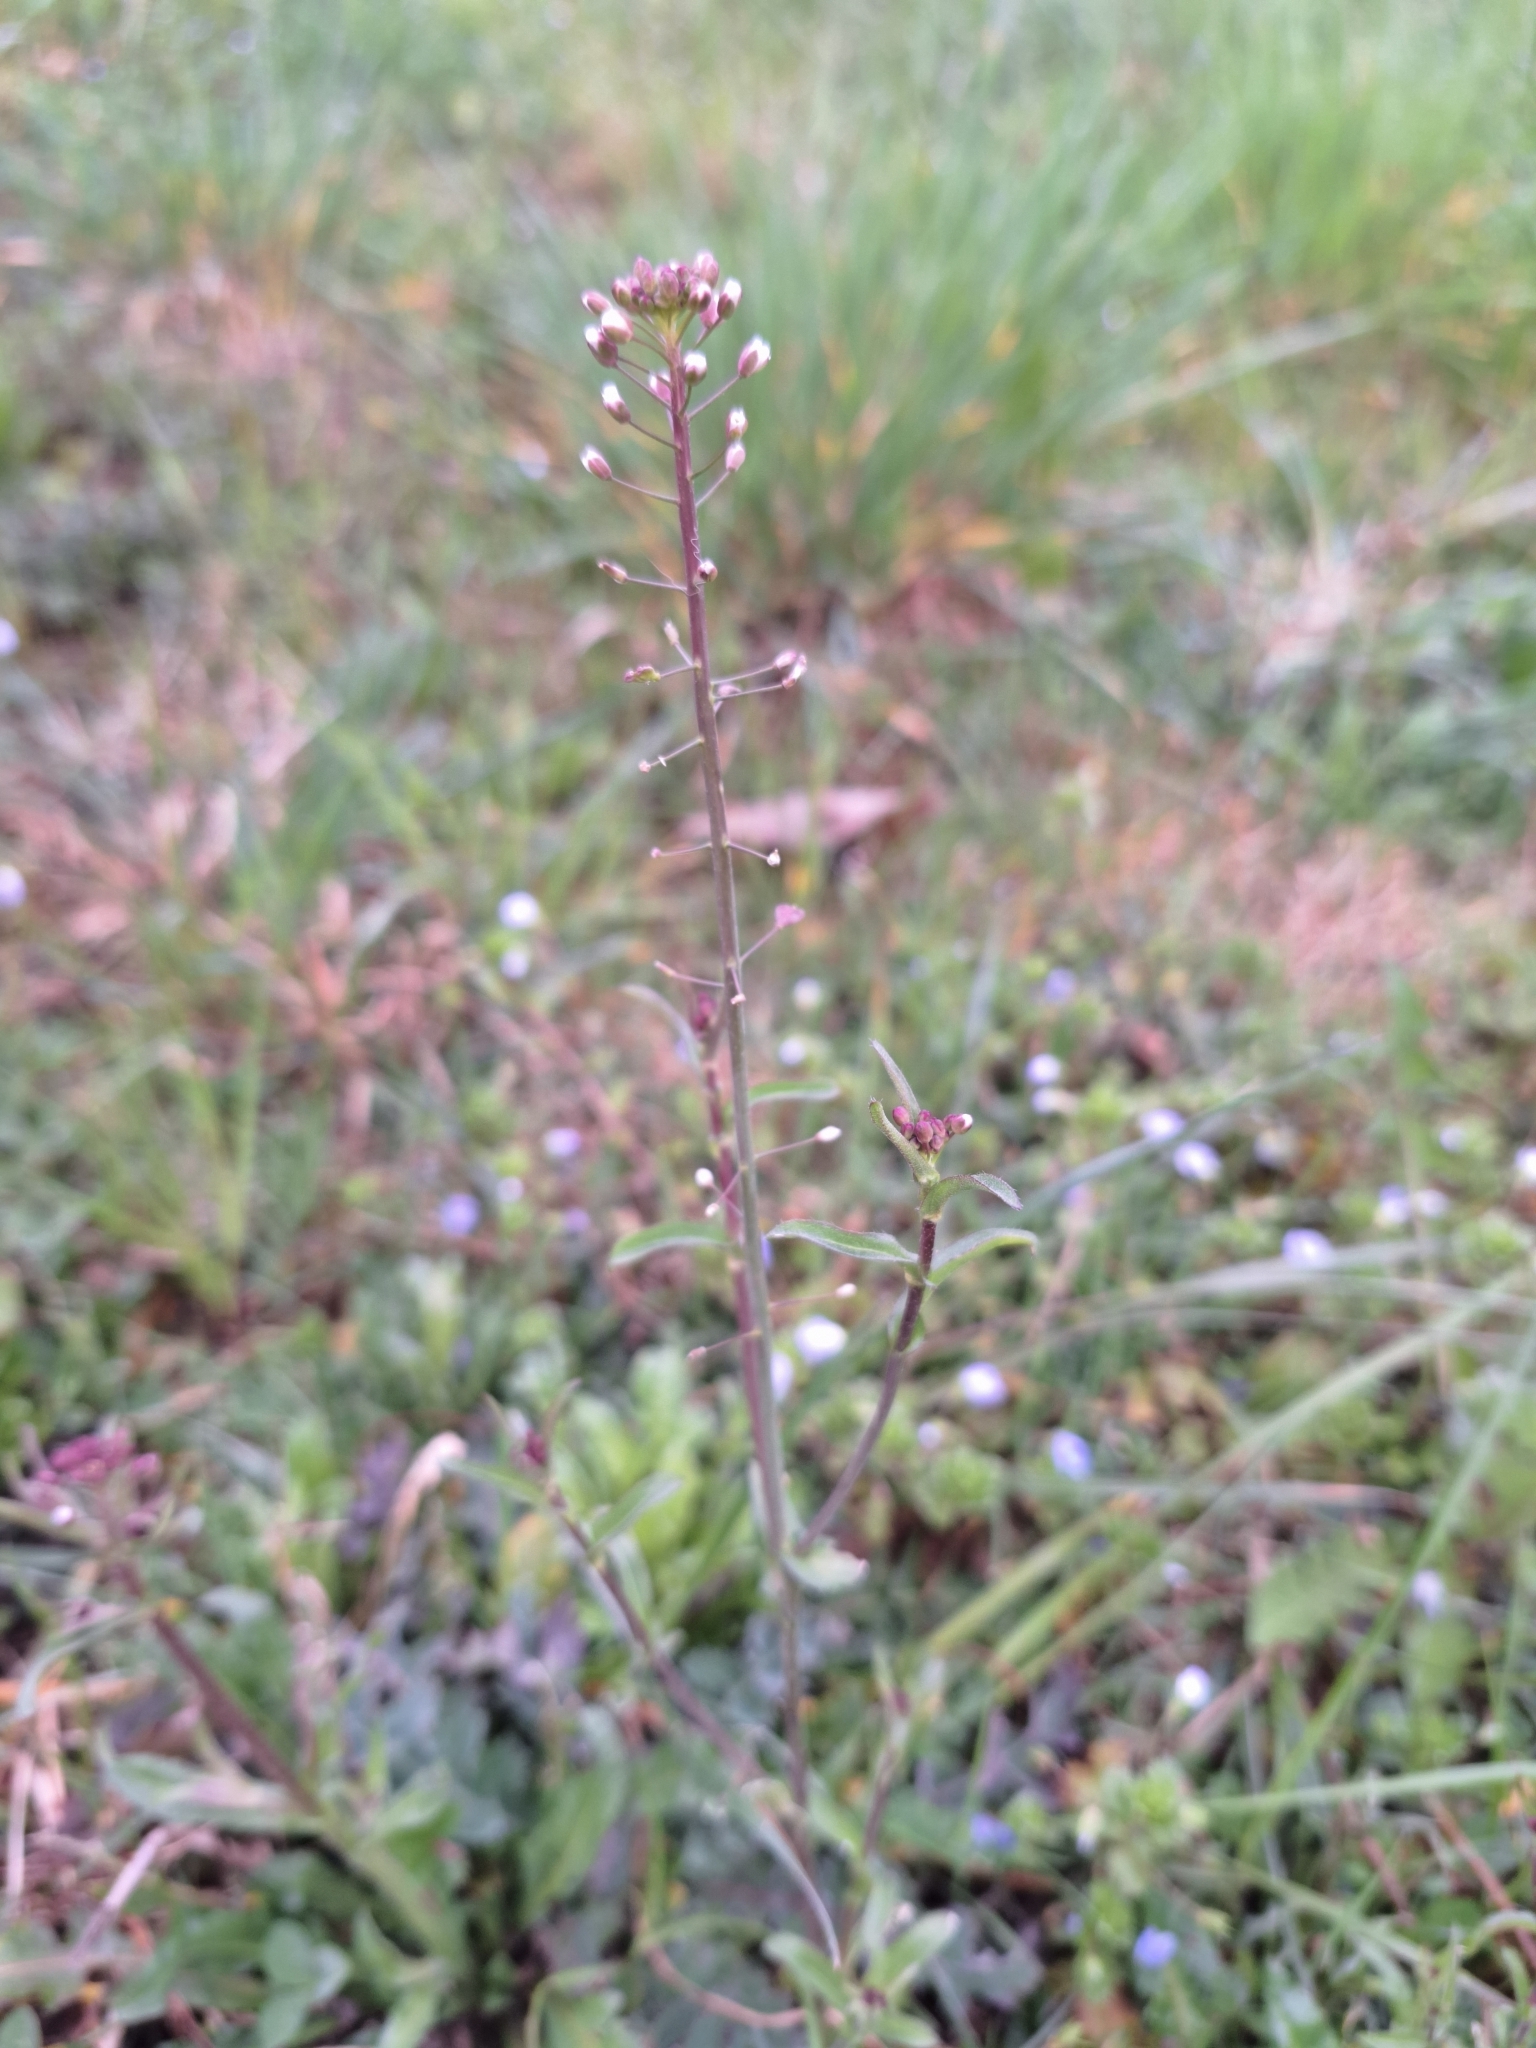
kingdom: Plantae
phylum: Tracheophyta
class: Magnoliopsida
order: Brassicales
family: Brassicaceae
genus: Capsella
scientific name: Capsella rubella
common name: Pink shepherd's-purse
